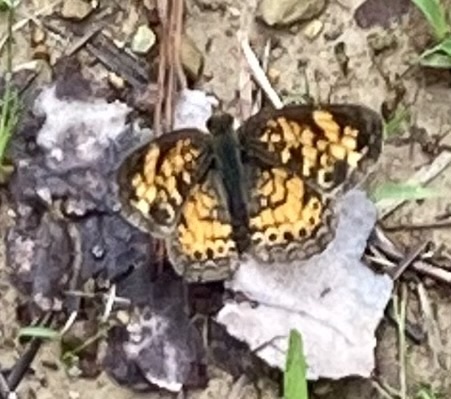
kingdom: Animalia
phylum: Arthropoda
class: Insecta
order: Lepidoptera
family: Nymphalidae
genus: Phyciodes
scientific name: Phyciodes tharos
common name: Pearl crescent
